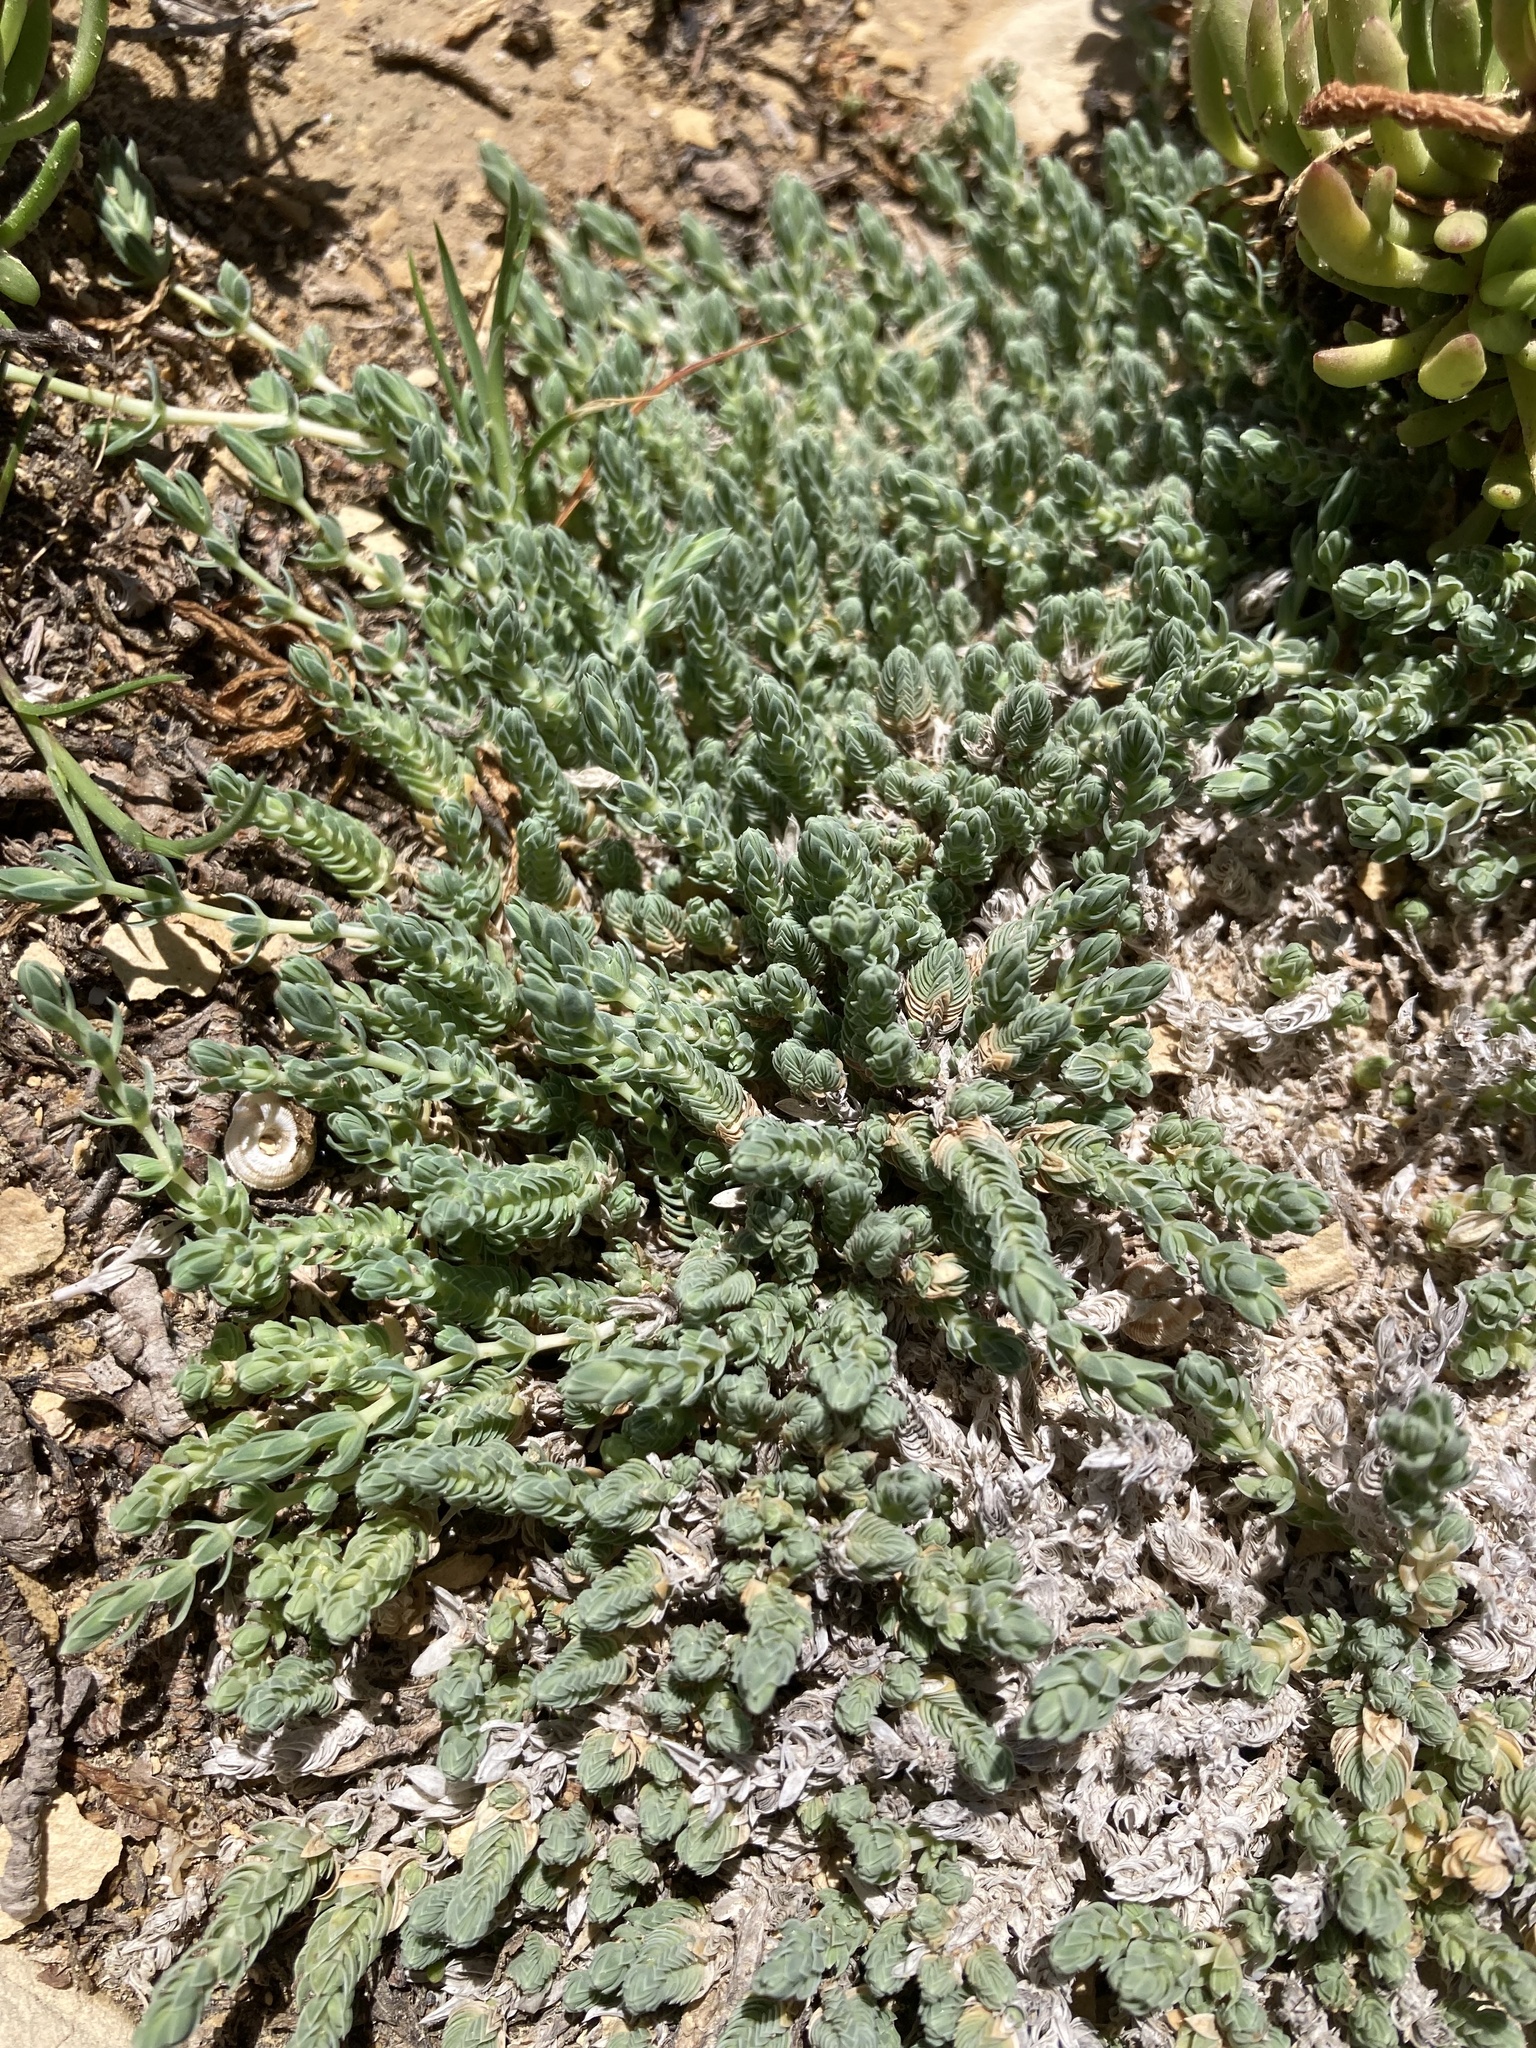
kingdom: Plantae
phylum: Tracheophyta
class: Magnoliopsida
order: Gentianales
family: Rubiaceae
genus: Crucianella
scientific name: Crucianella maritima
